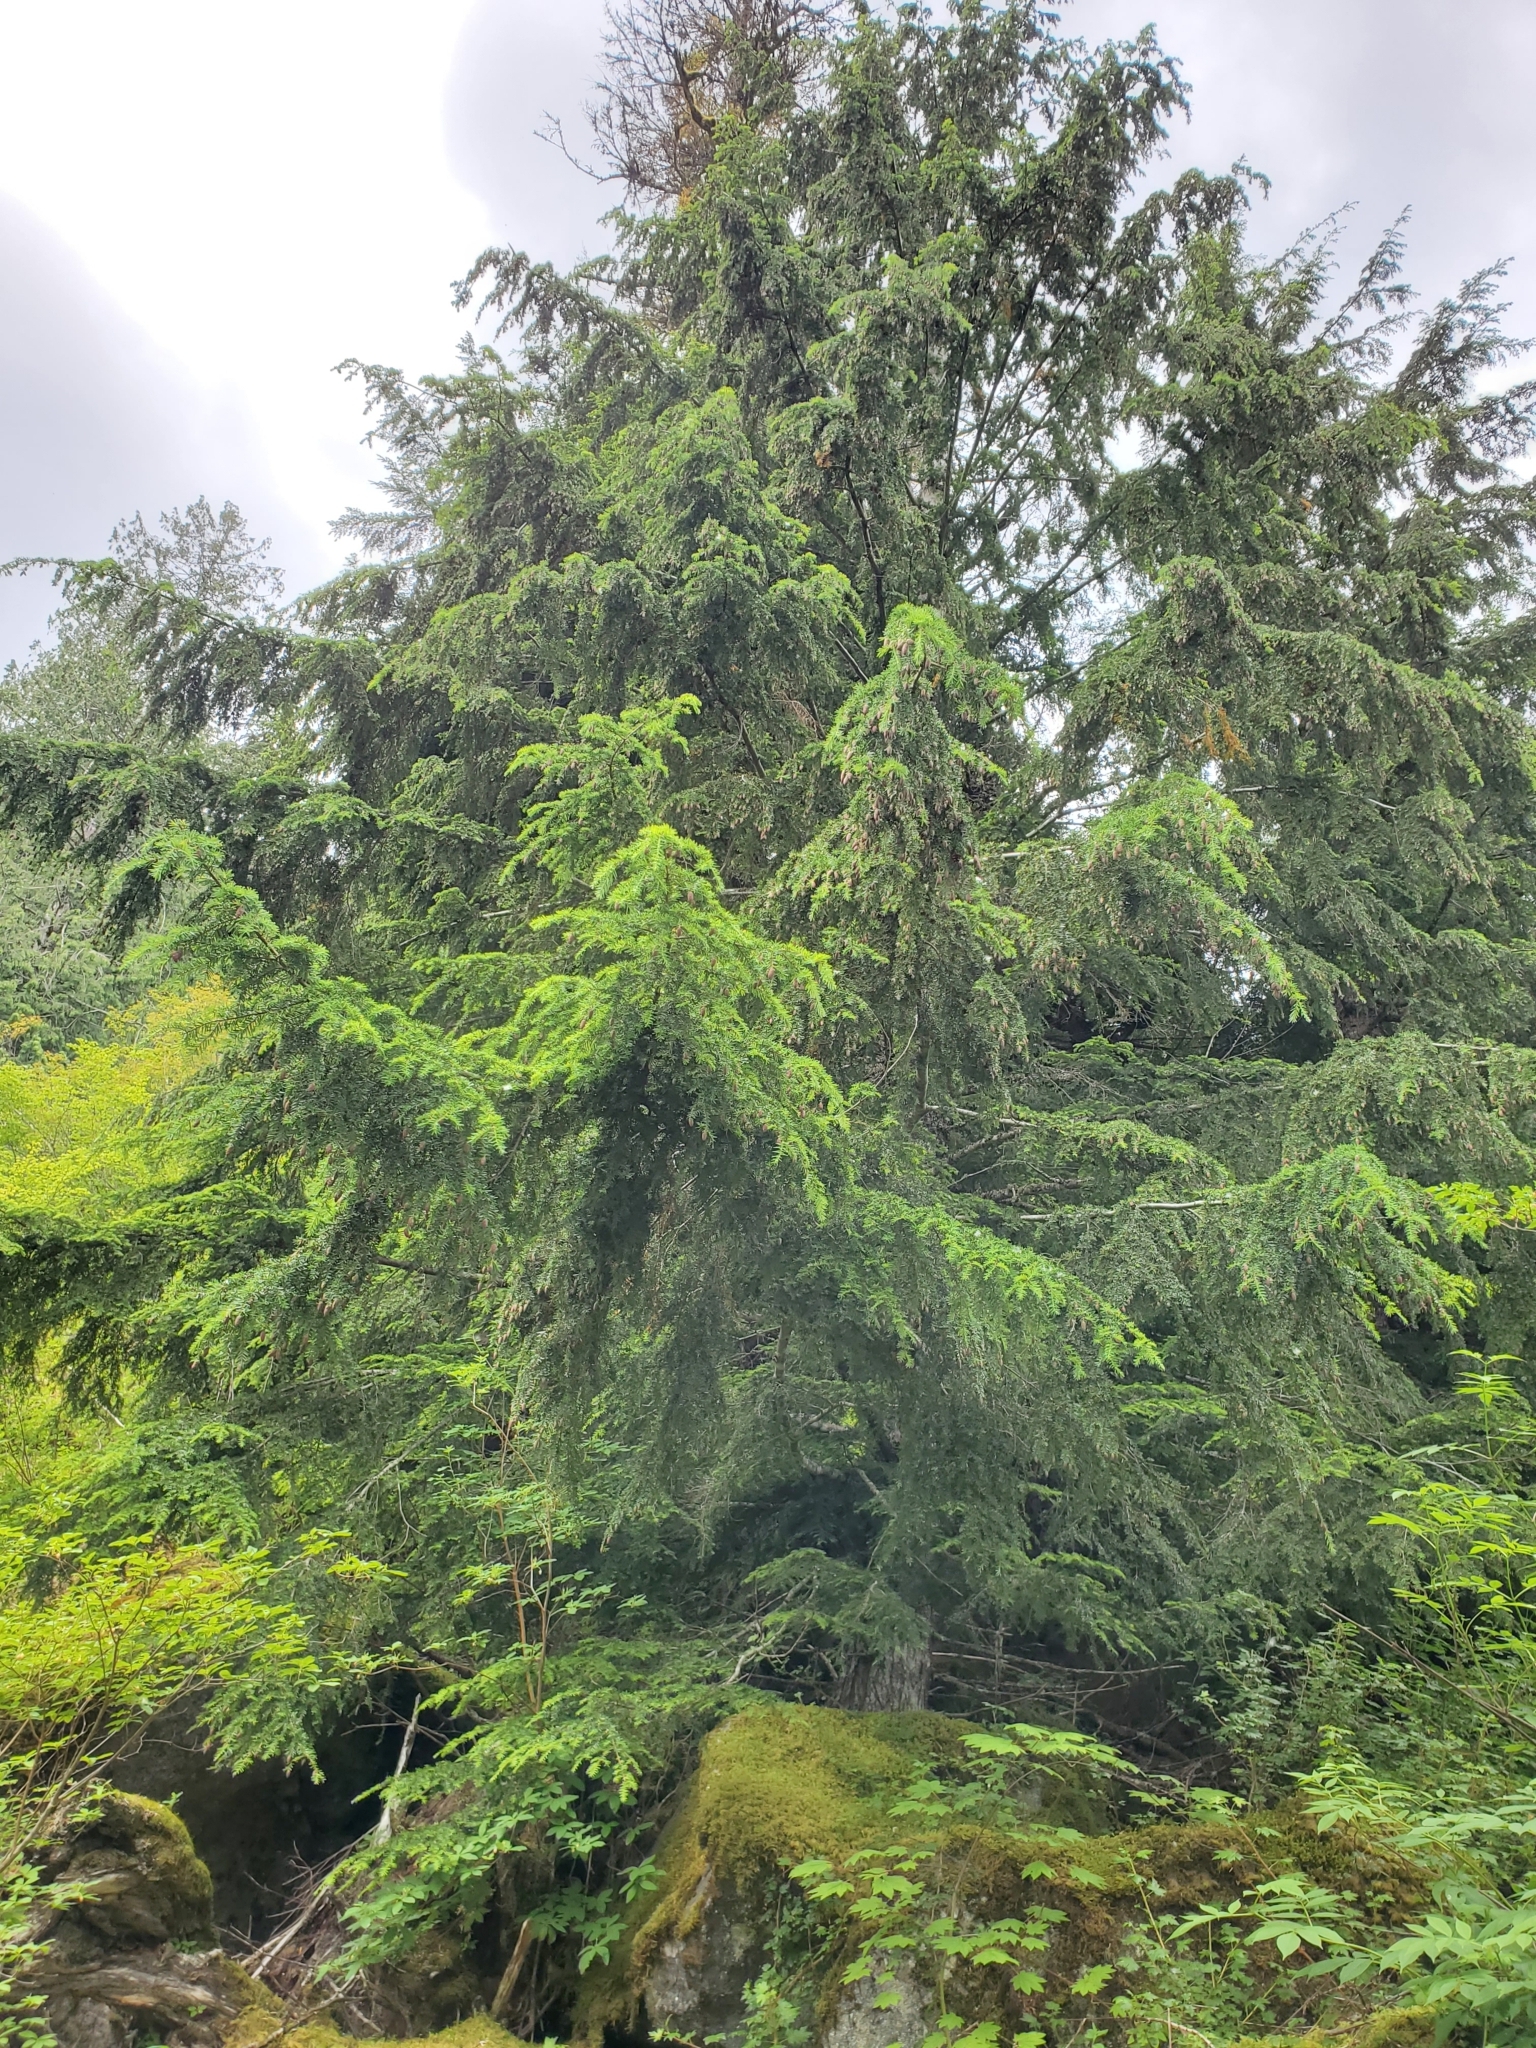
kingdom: Plantae
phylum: Tracheophyta
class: Pinopsida
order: Pinales
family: Pinaceae
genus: Tsuga
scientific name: Tsuga heterophylla
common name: Western hemlock
